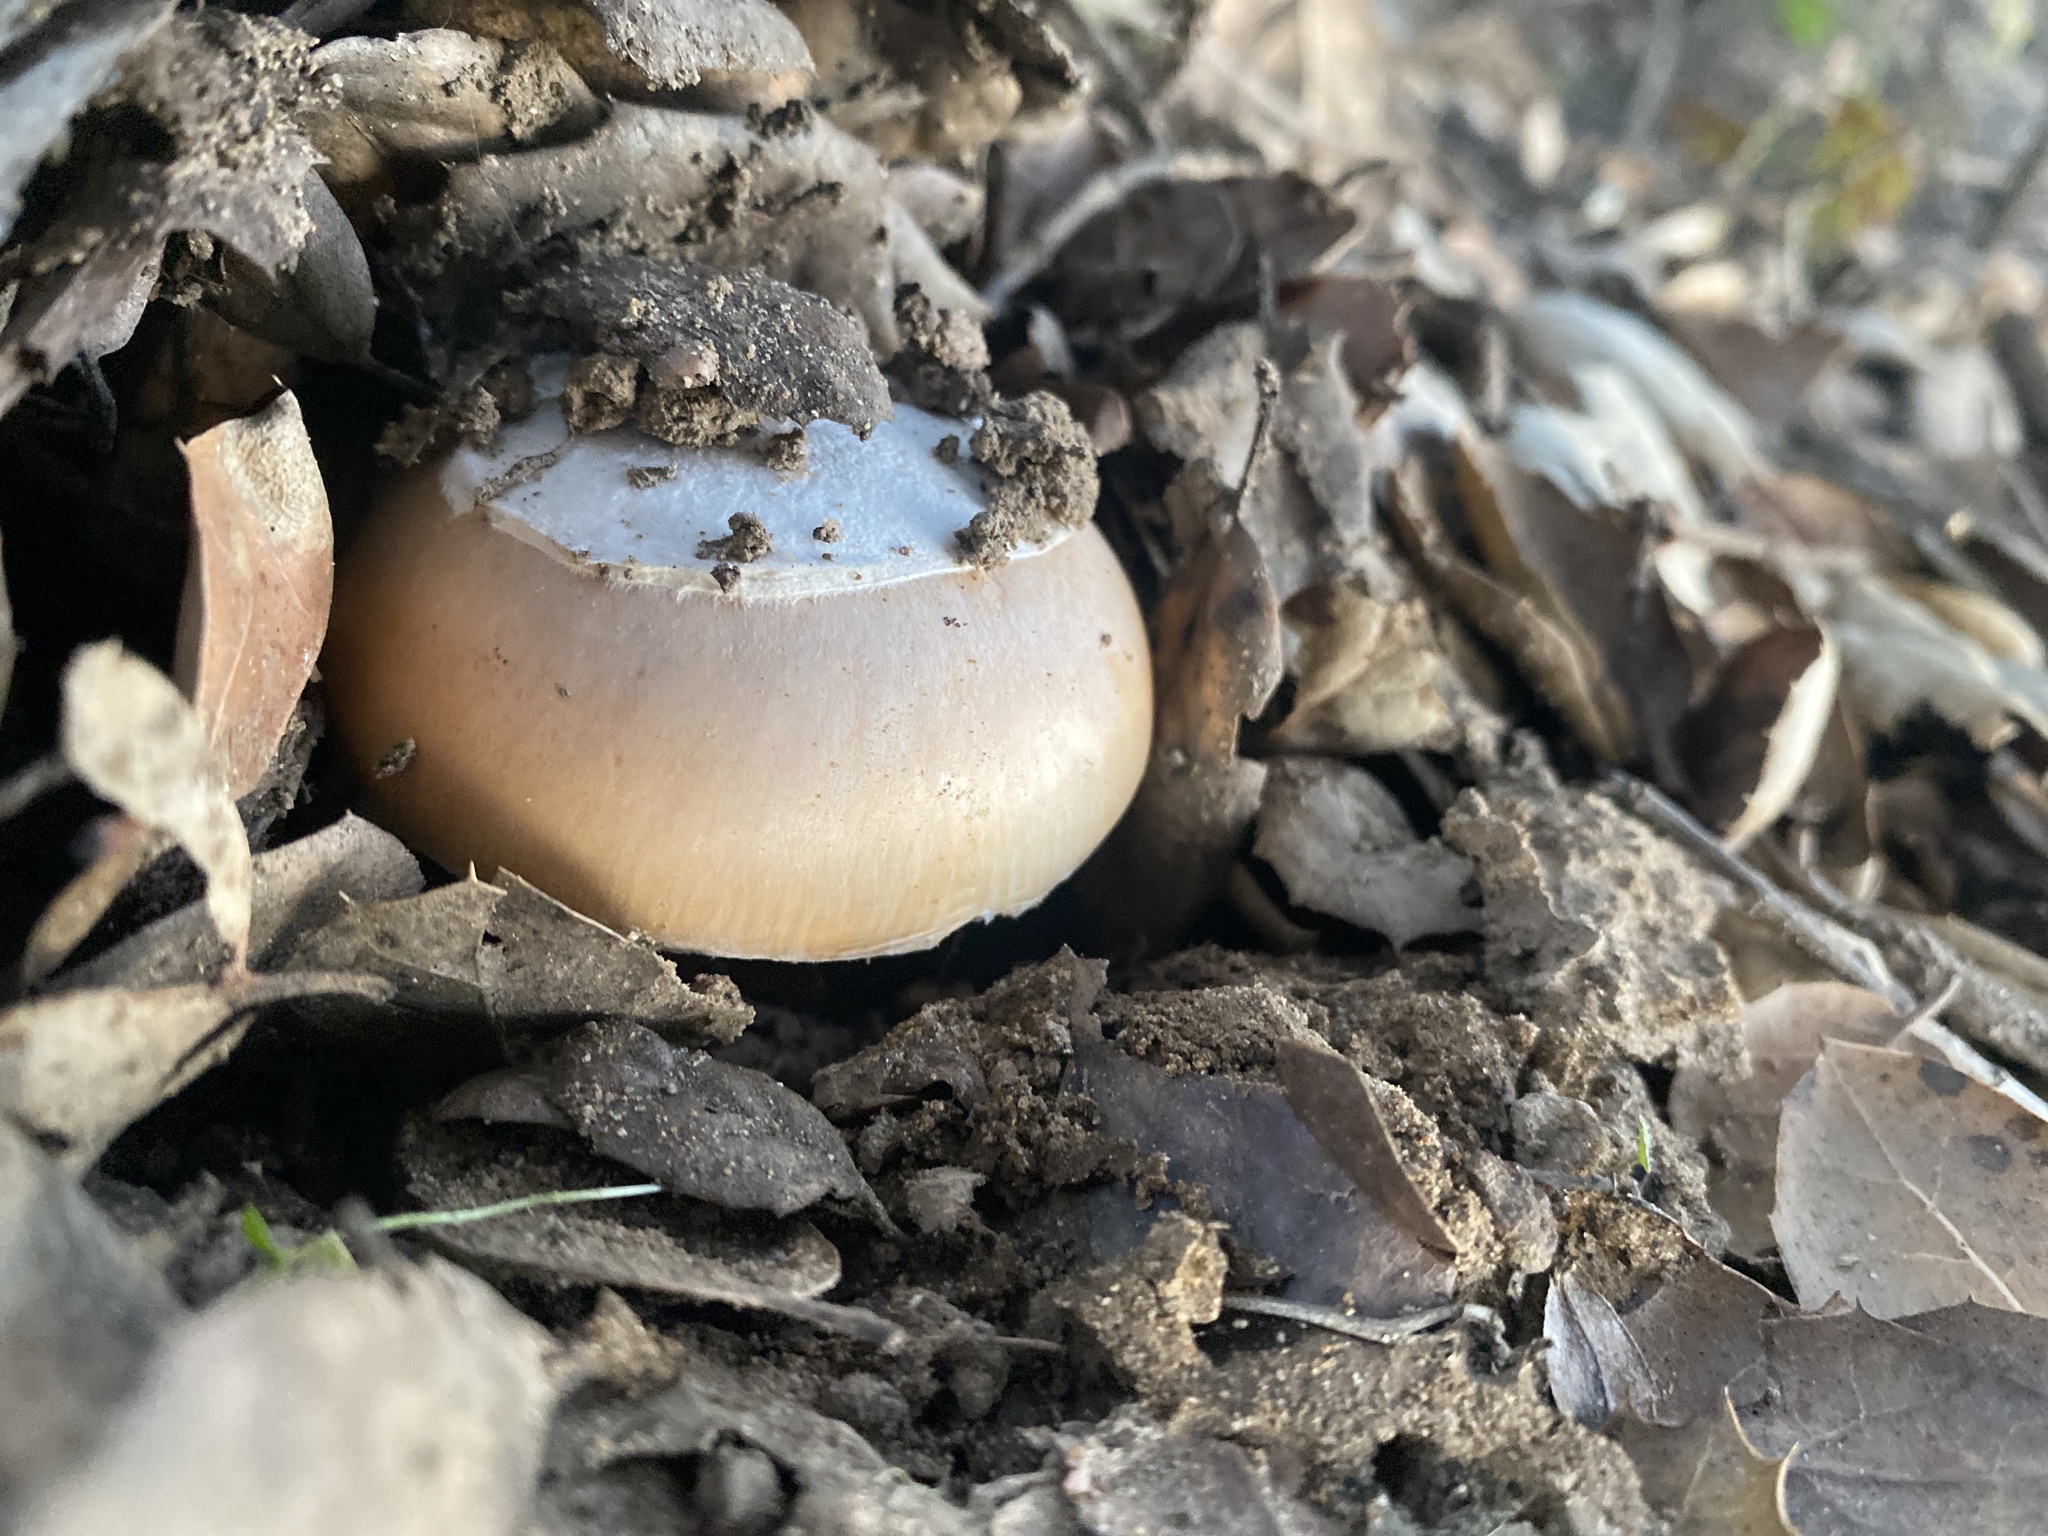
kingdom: Fungi
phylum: Basidiomycota
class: Agaricomycetes
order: Agaricales
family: Amanitaceae
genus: Amanita
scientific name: Amanita velosa
